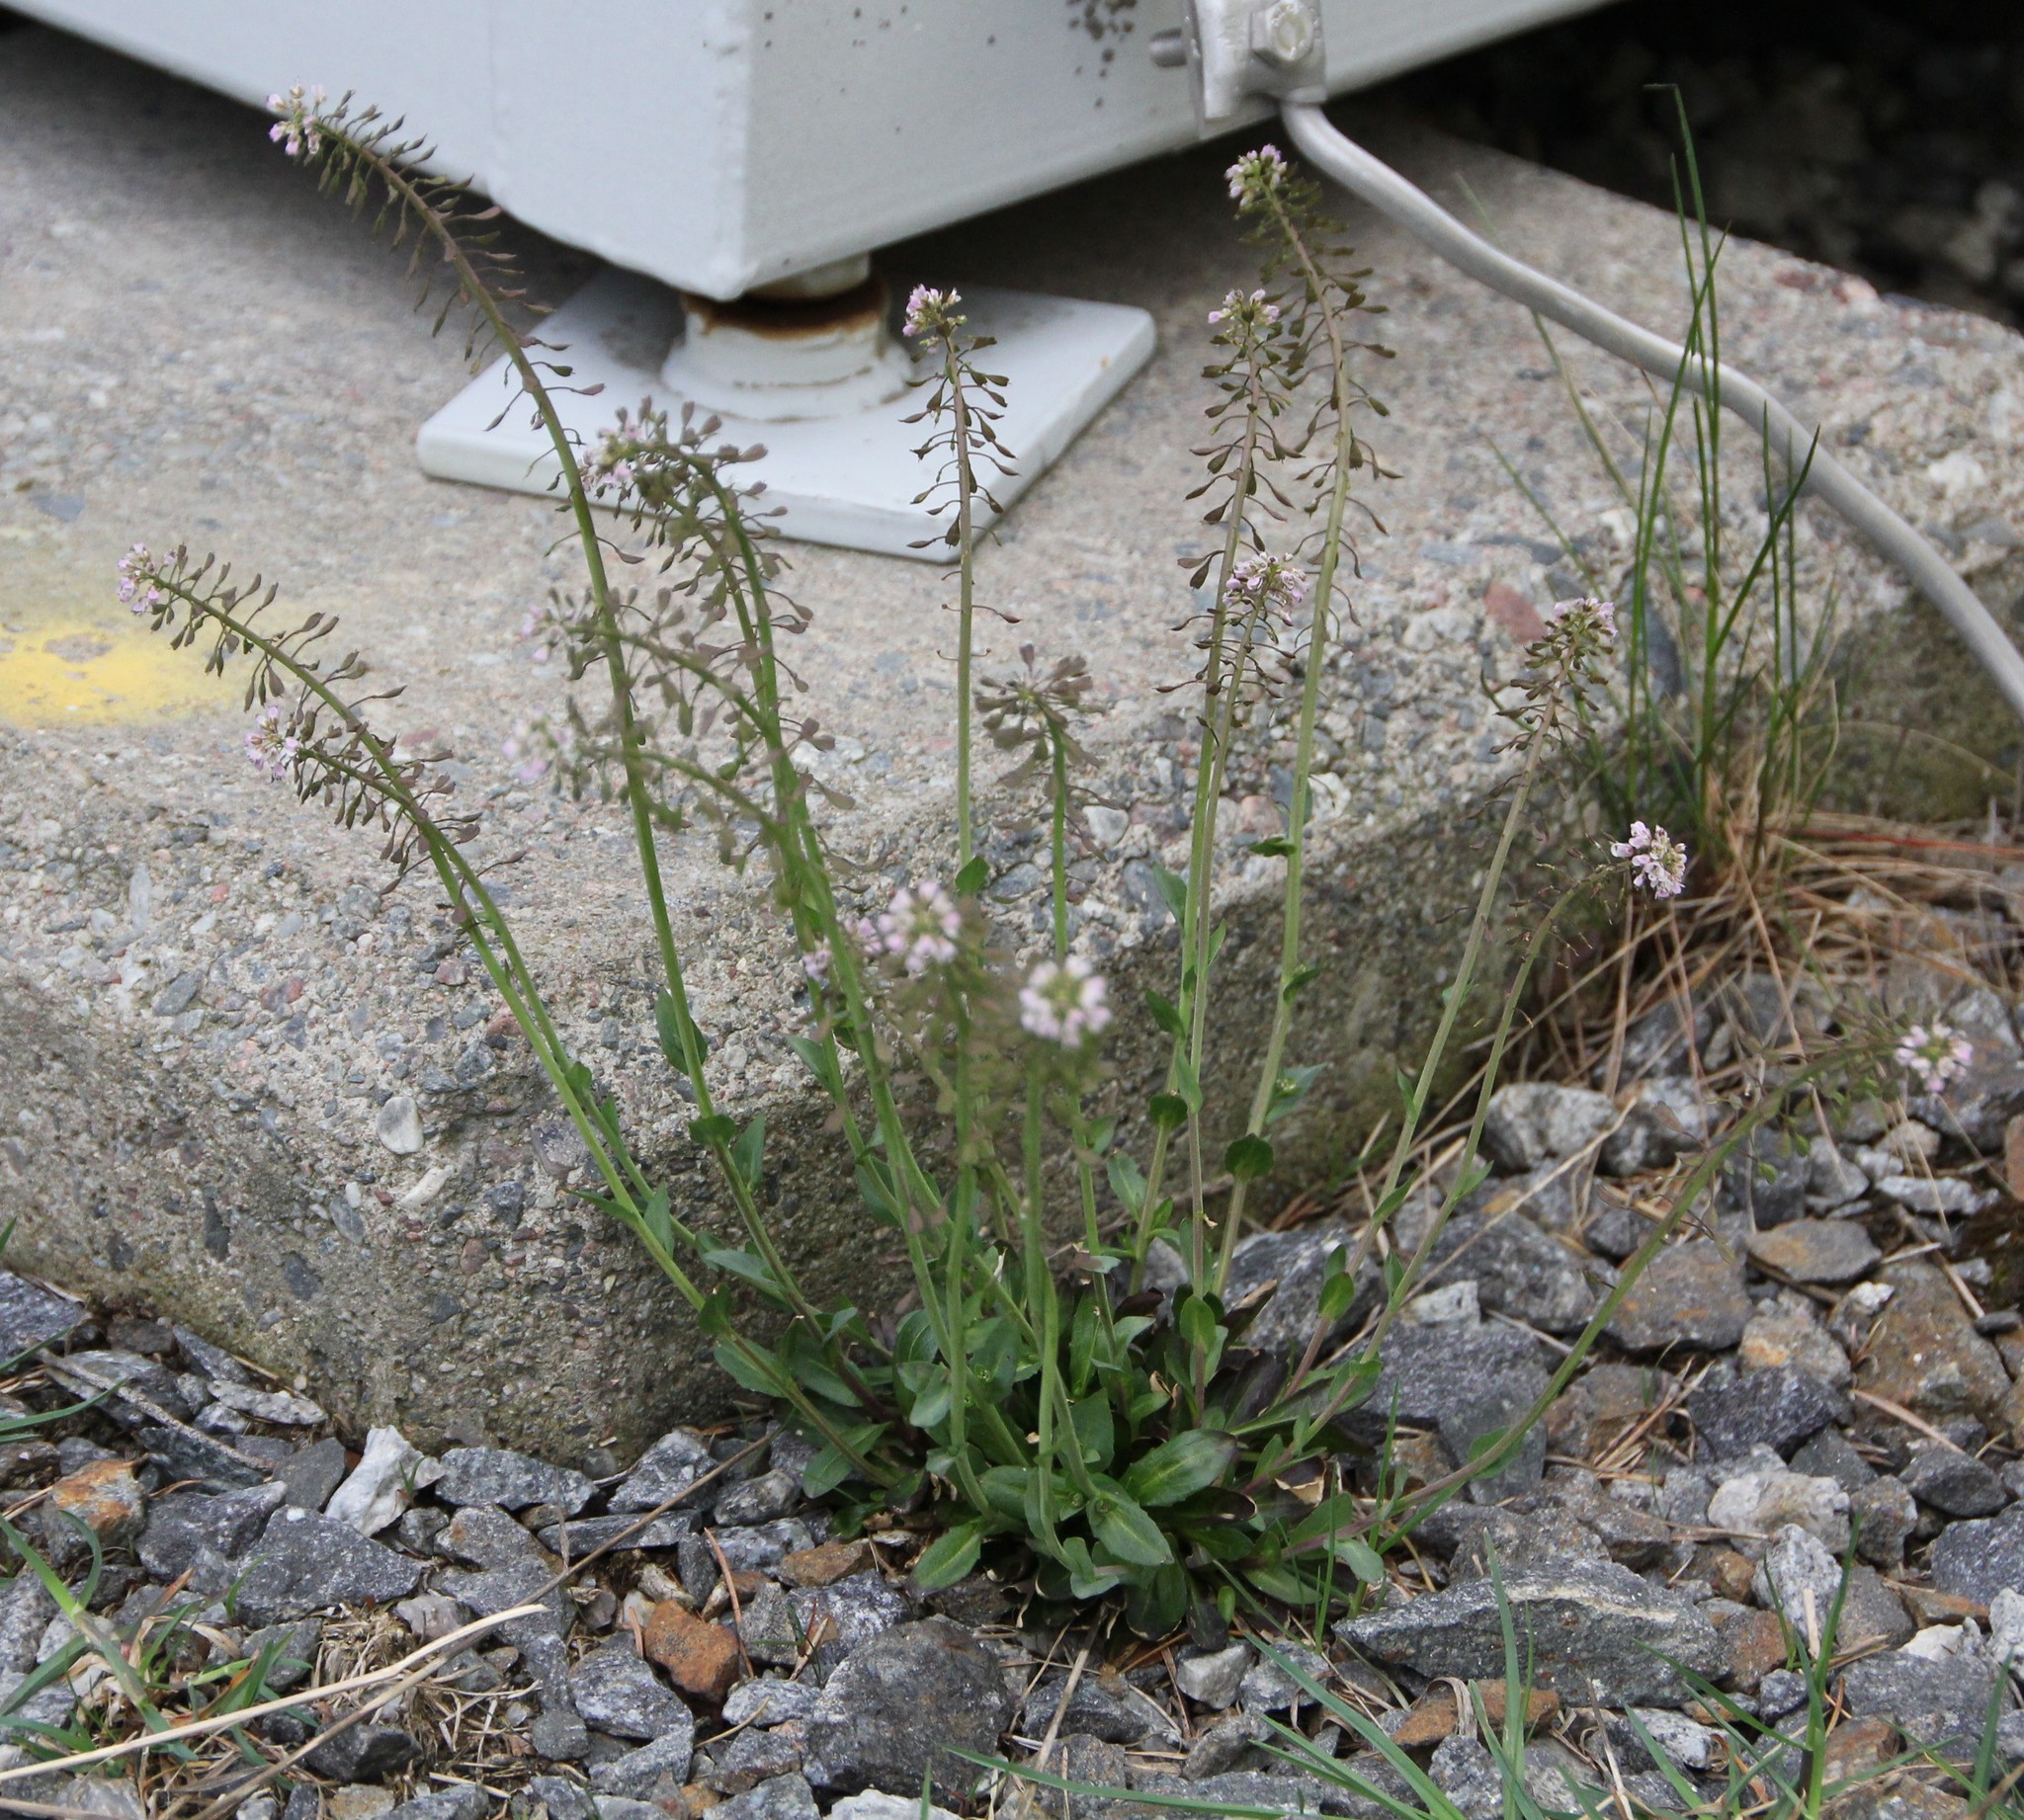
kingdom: Plantae
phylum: Tracheophyta
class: Magnoliopsida
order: Brassicales
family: Brassicaceae
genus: Noccaea
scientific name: Noccaea caerulescens
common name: Alpine pennycress
